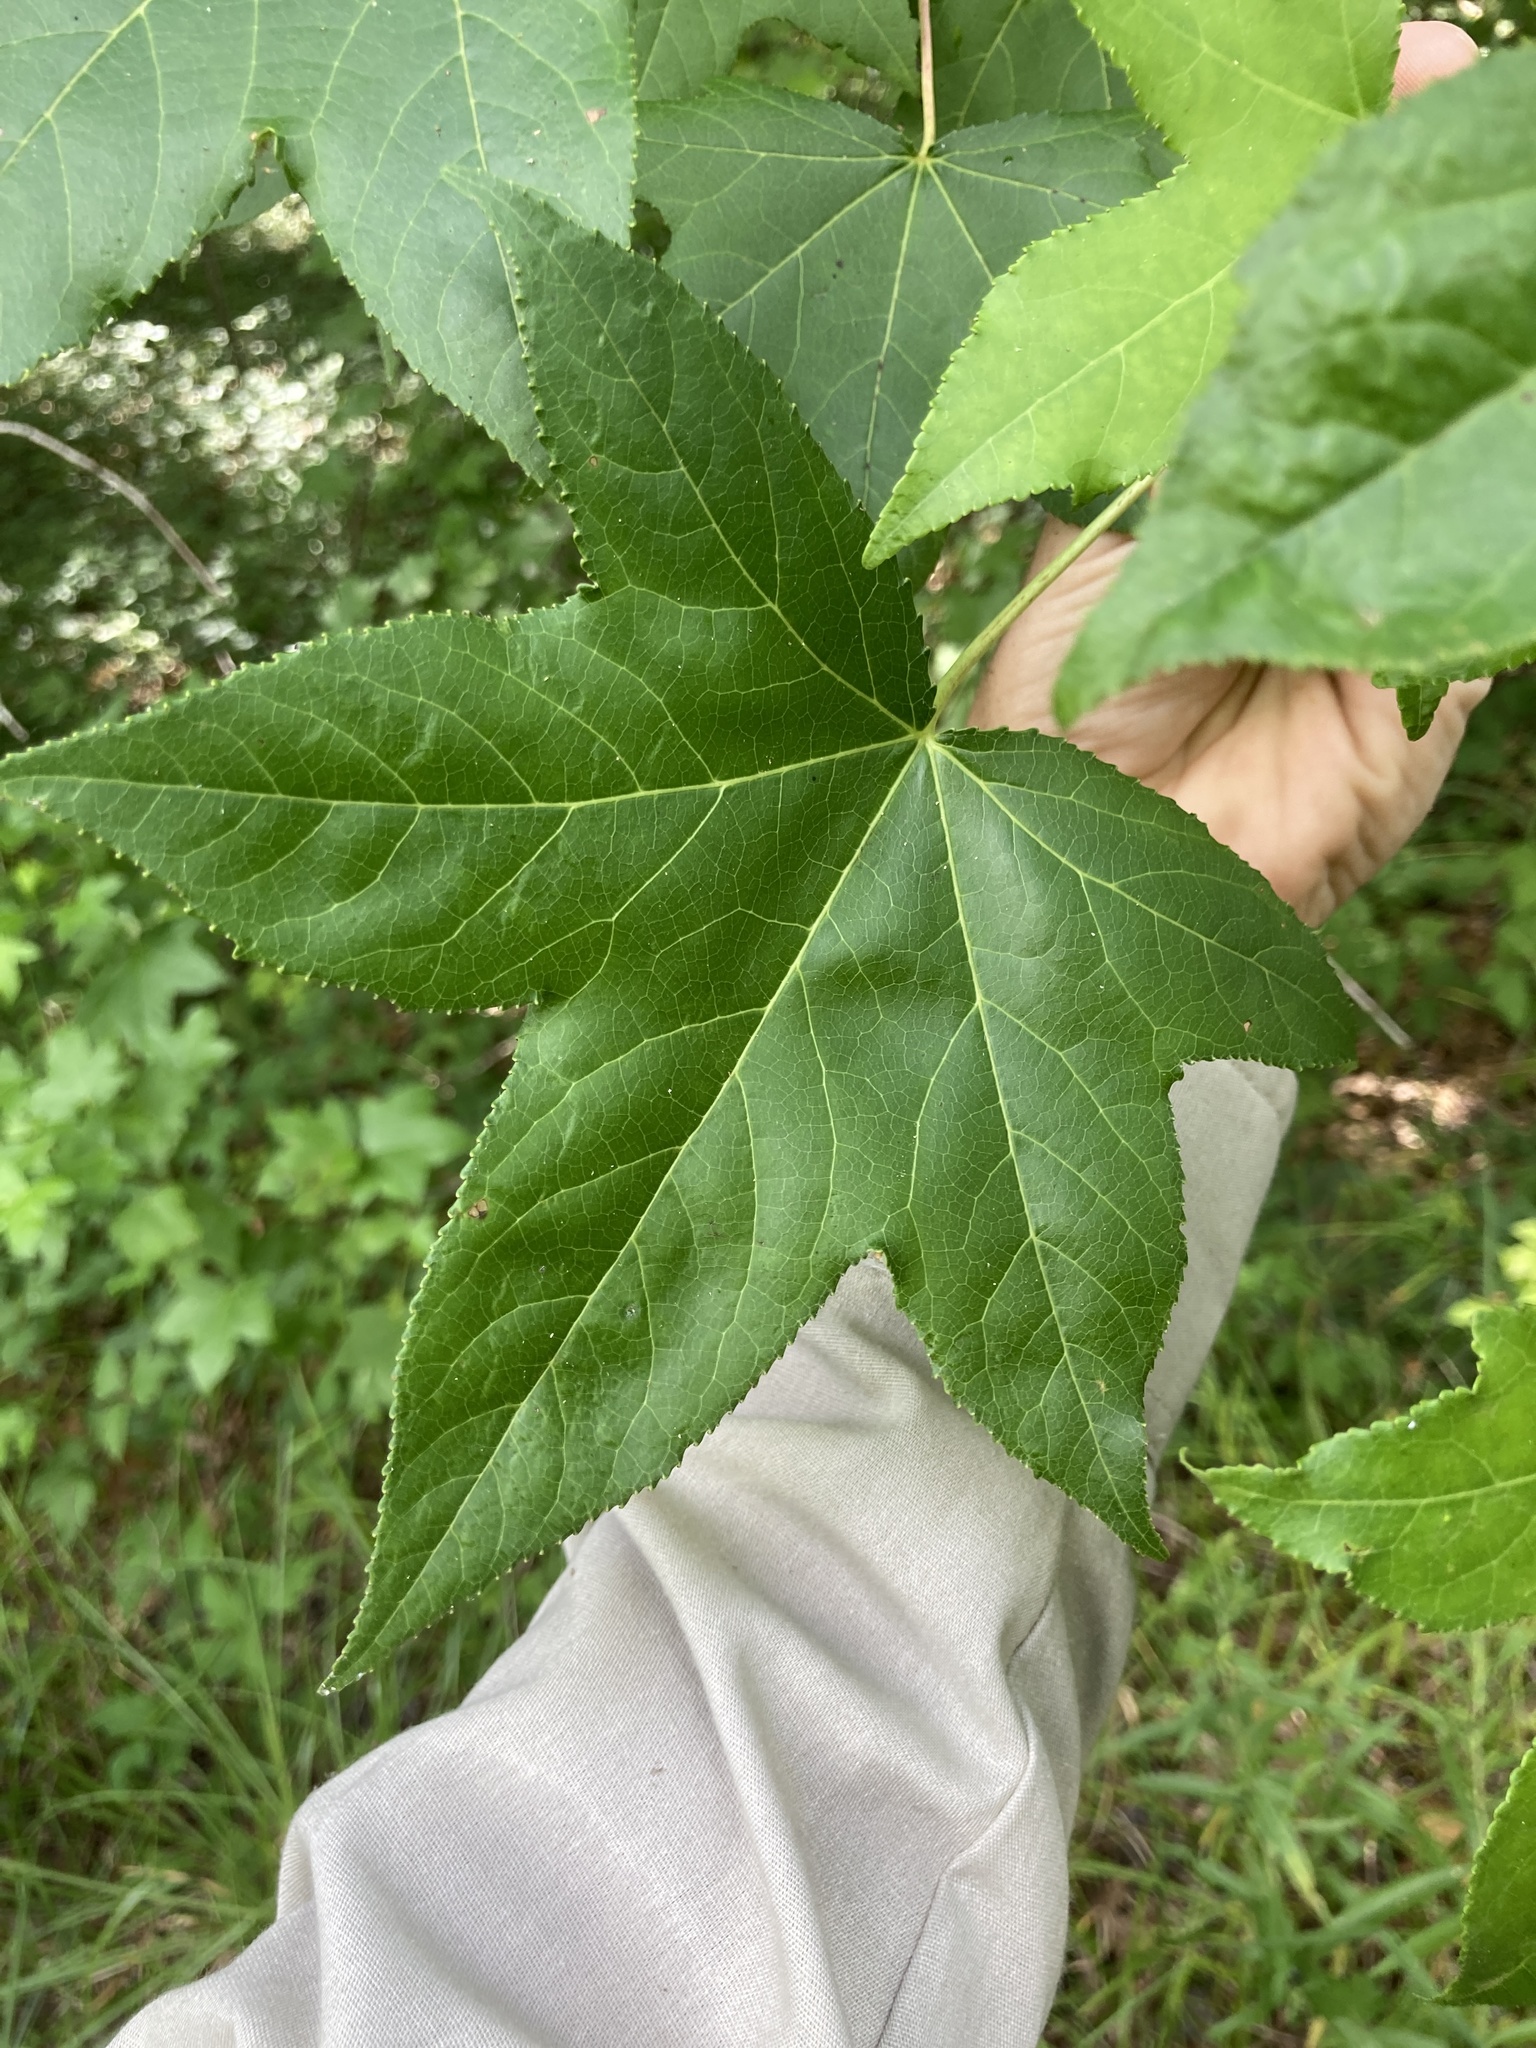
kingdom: Plantae
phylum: Tracheophyta
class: Magnoliopsida
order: Saxifragales
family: Altingiaceae
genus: Liquidambar
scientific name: Liquidambar styraciflua
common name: Sweet gum
